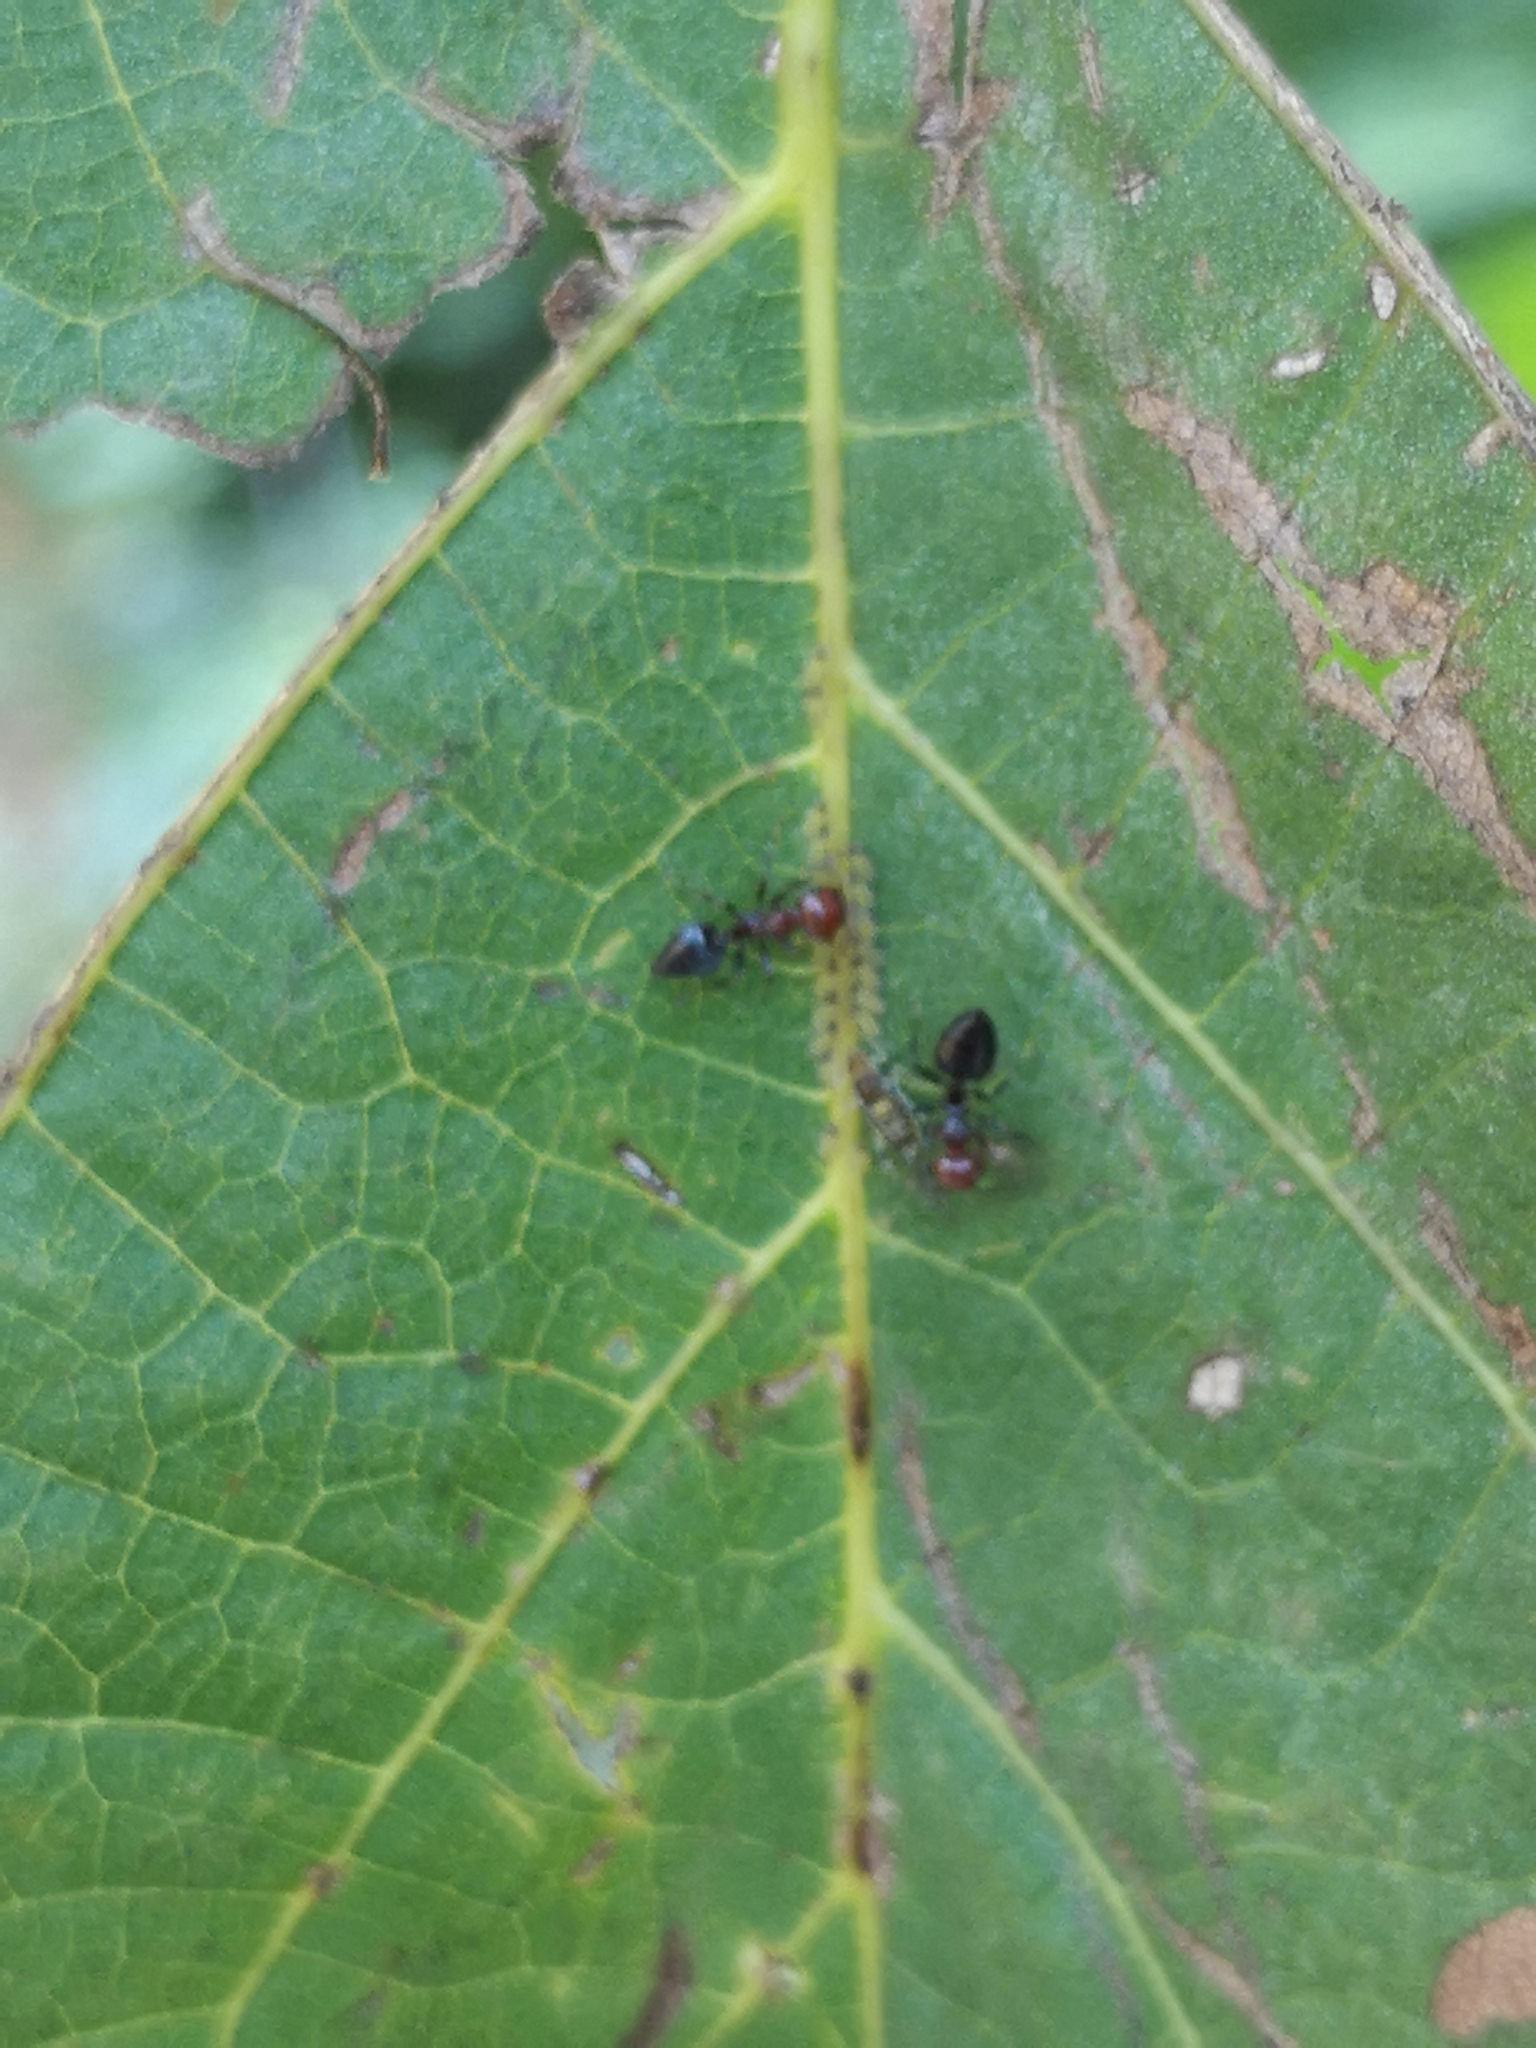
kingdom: Animalia
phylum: Arthropoda
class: Insecta
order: Hymenoptera
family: Formicidae
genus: Crematogaster
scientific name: Crematogaster scutellaris
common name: Fourmi du liège
